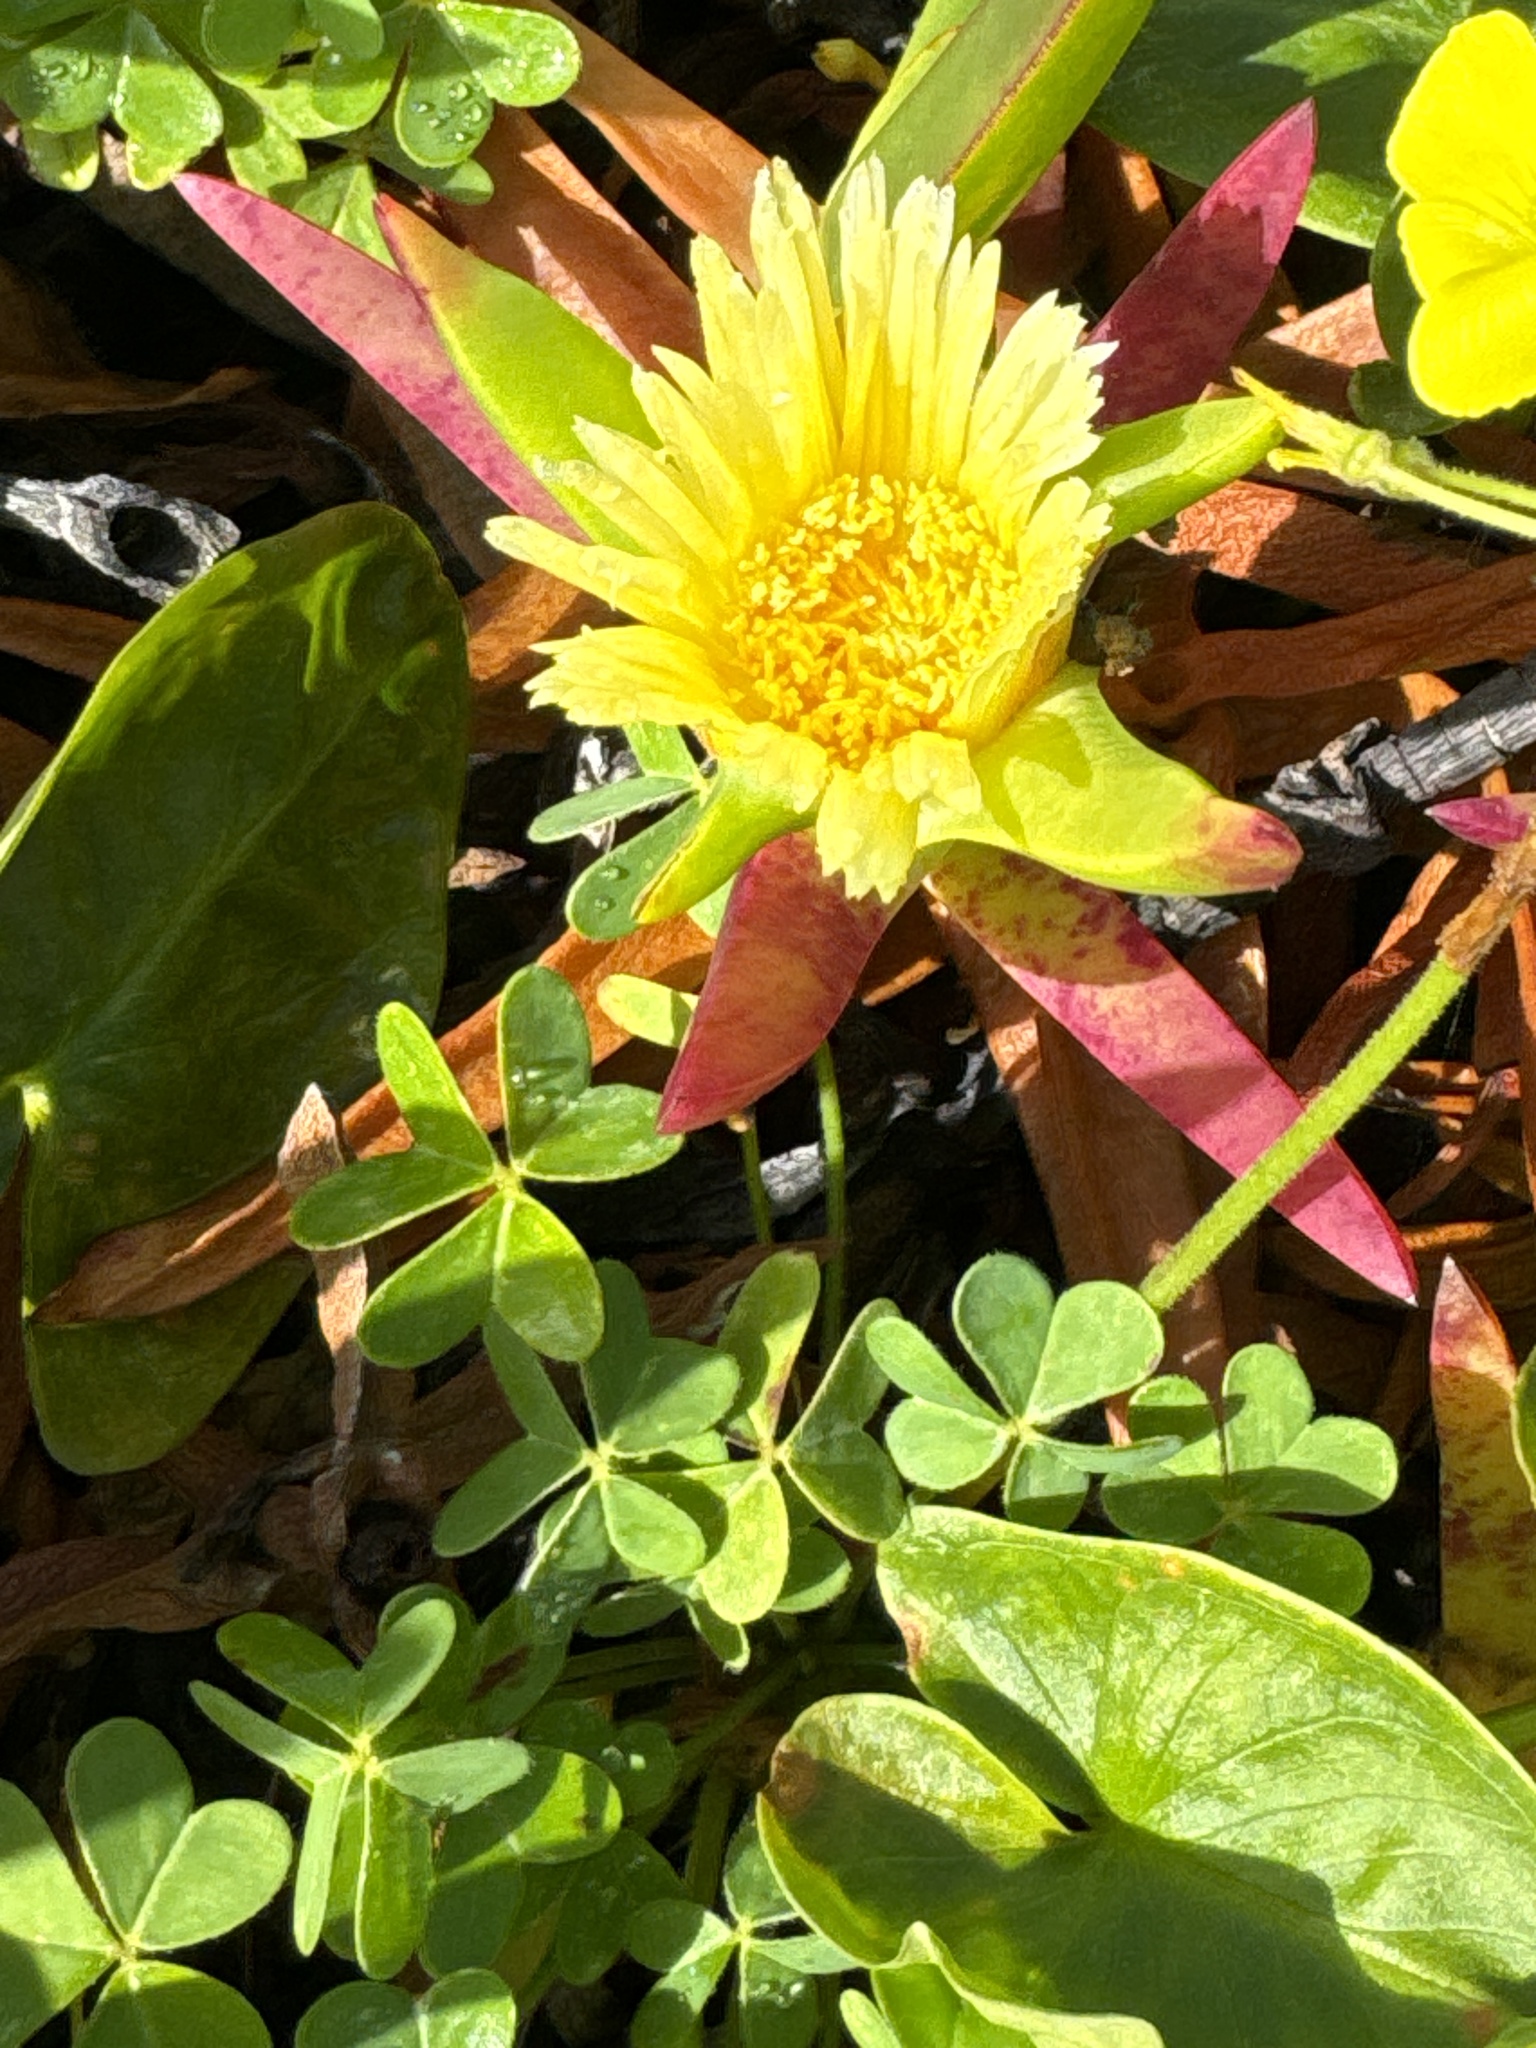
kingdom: Plantae
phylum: Tracheophyta
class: Magnoliopsida
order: Caryophyllales
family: Aizoaceae
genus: Carpobrotus
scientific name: Carpobrotus edulis
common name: Hottentot-fig
